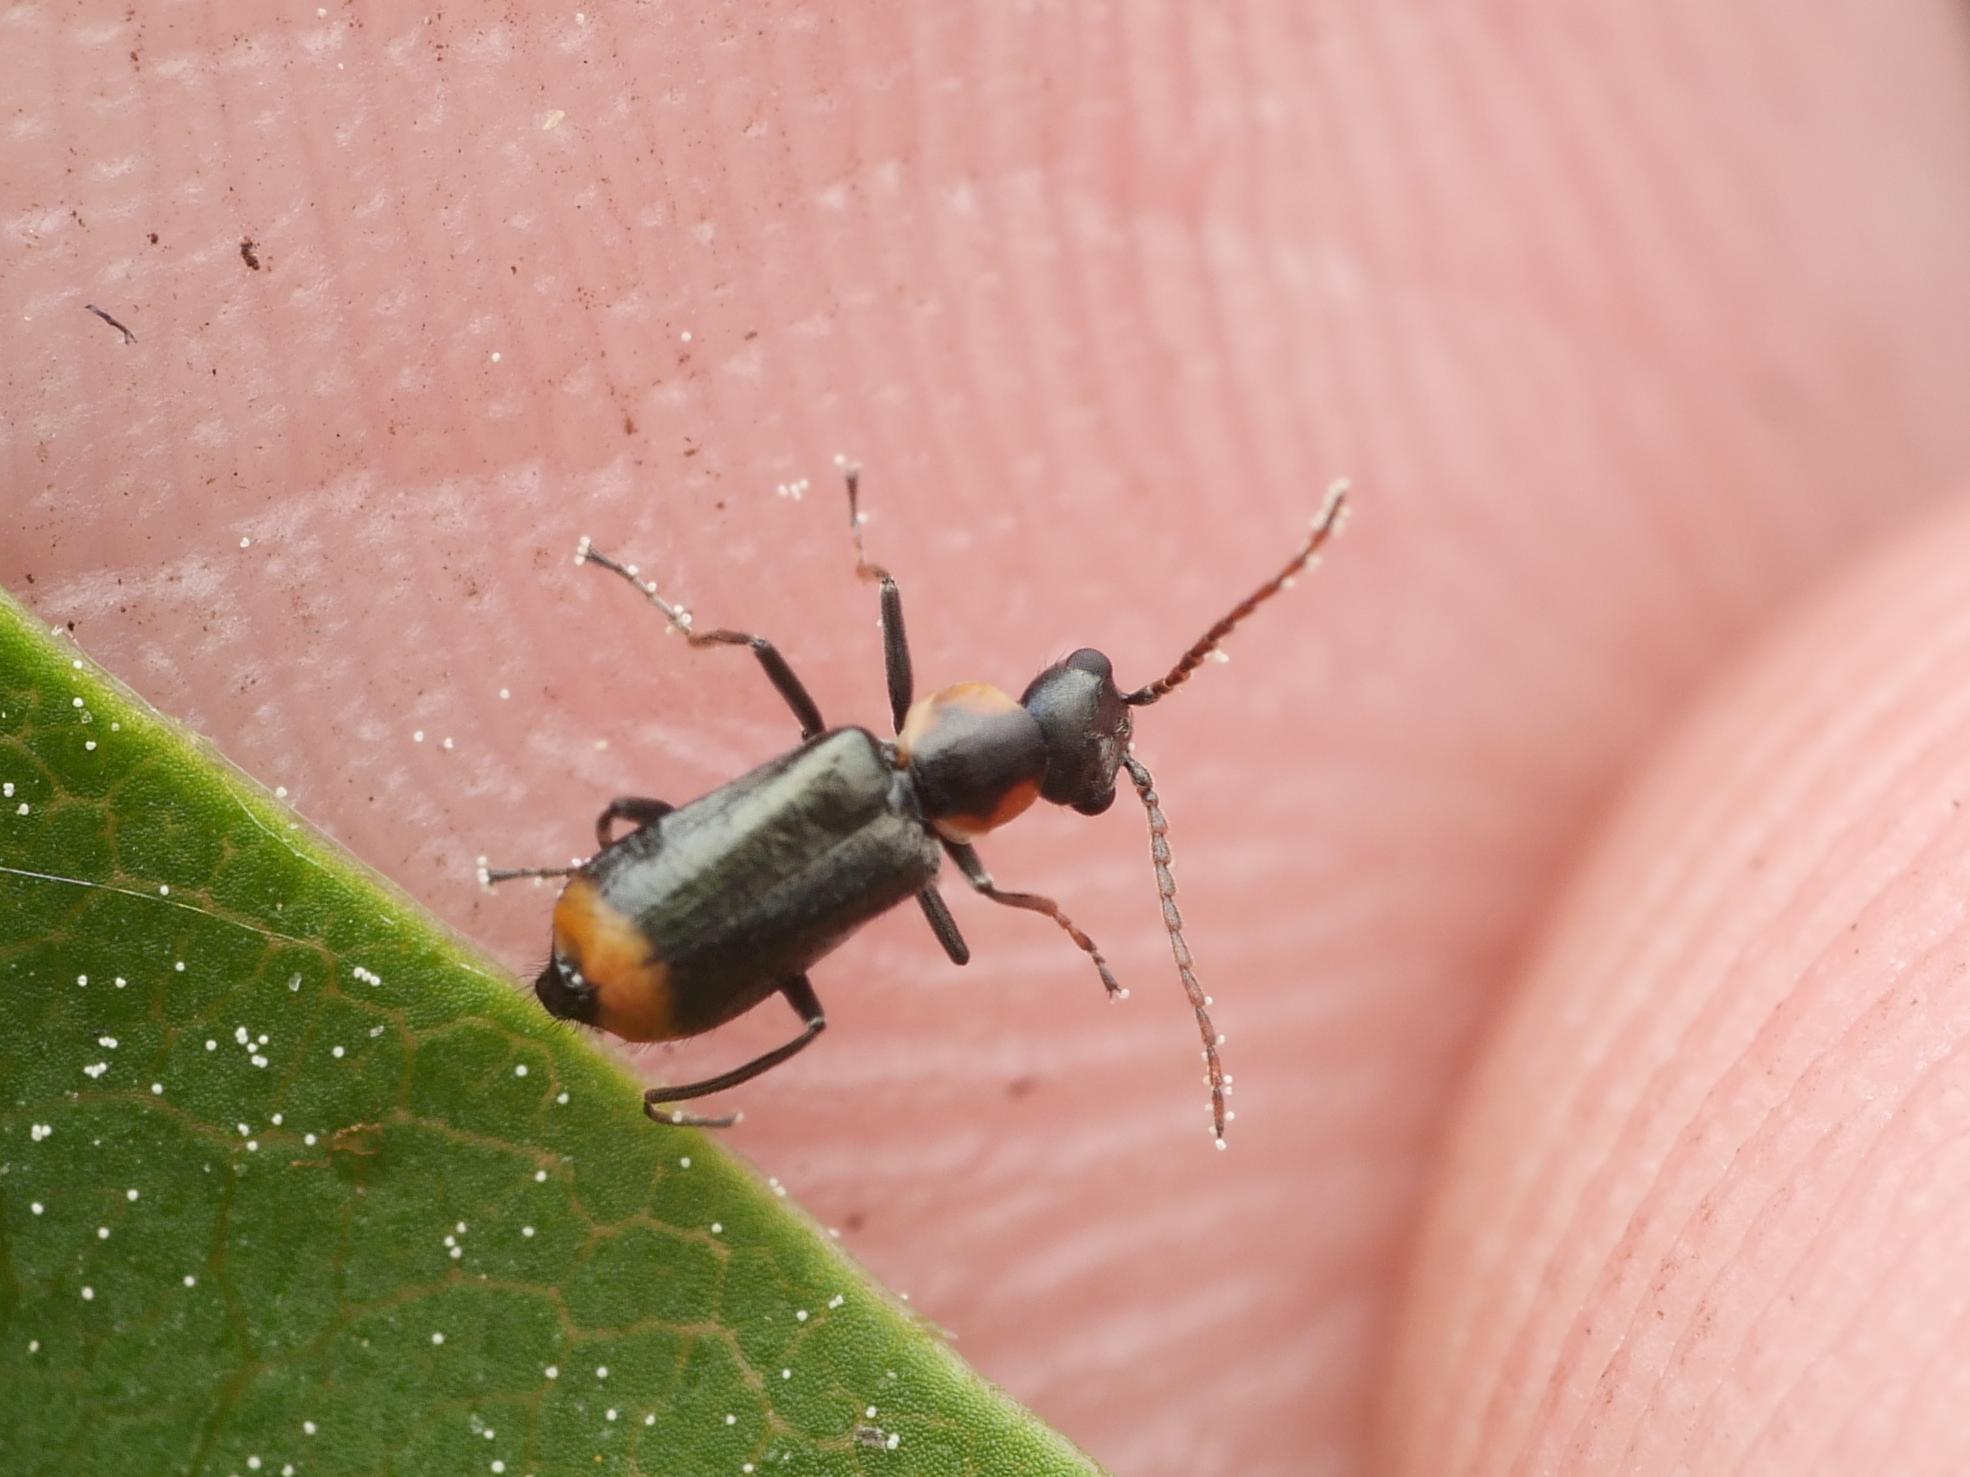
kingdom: Animalia
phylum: Arthropoda
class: Insecta
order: Coleoptera
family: Melyridae
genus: Axinotarsus
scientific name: Axinotarsus marginalis
